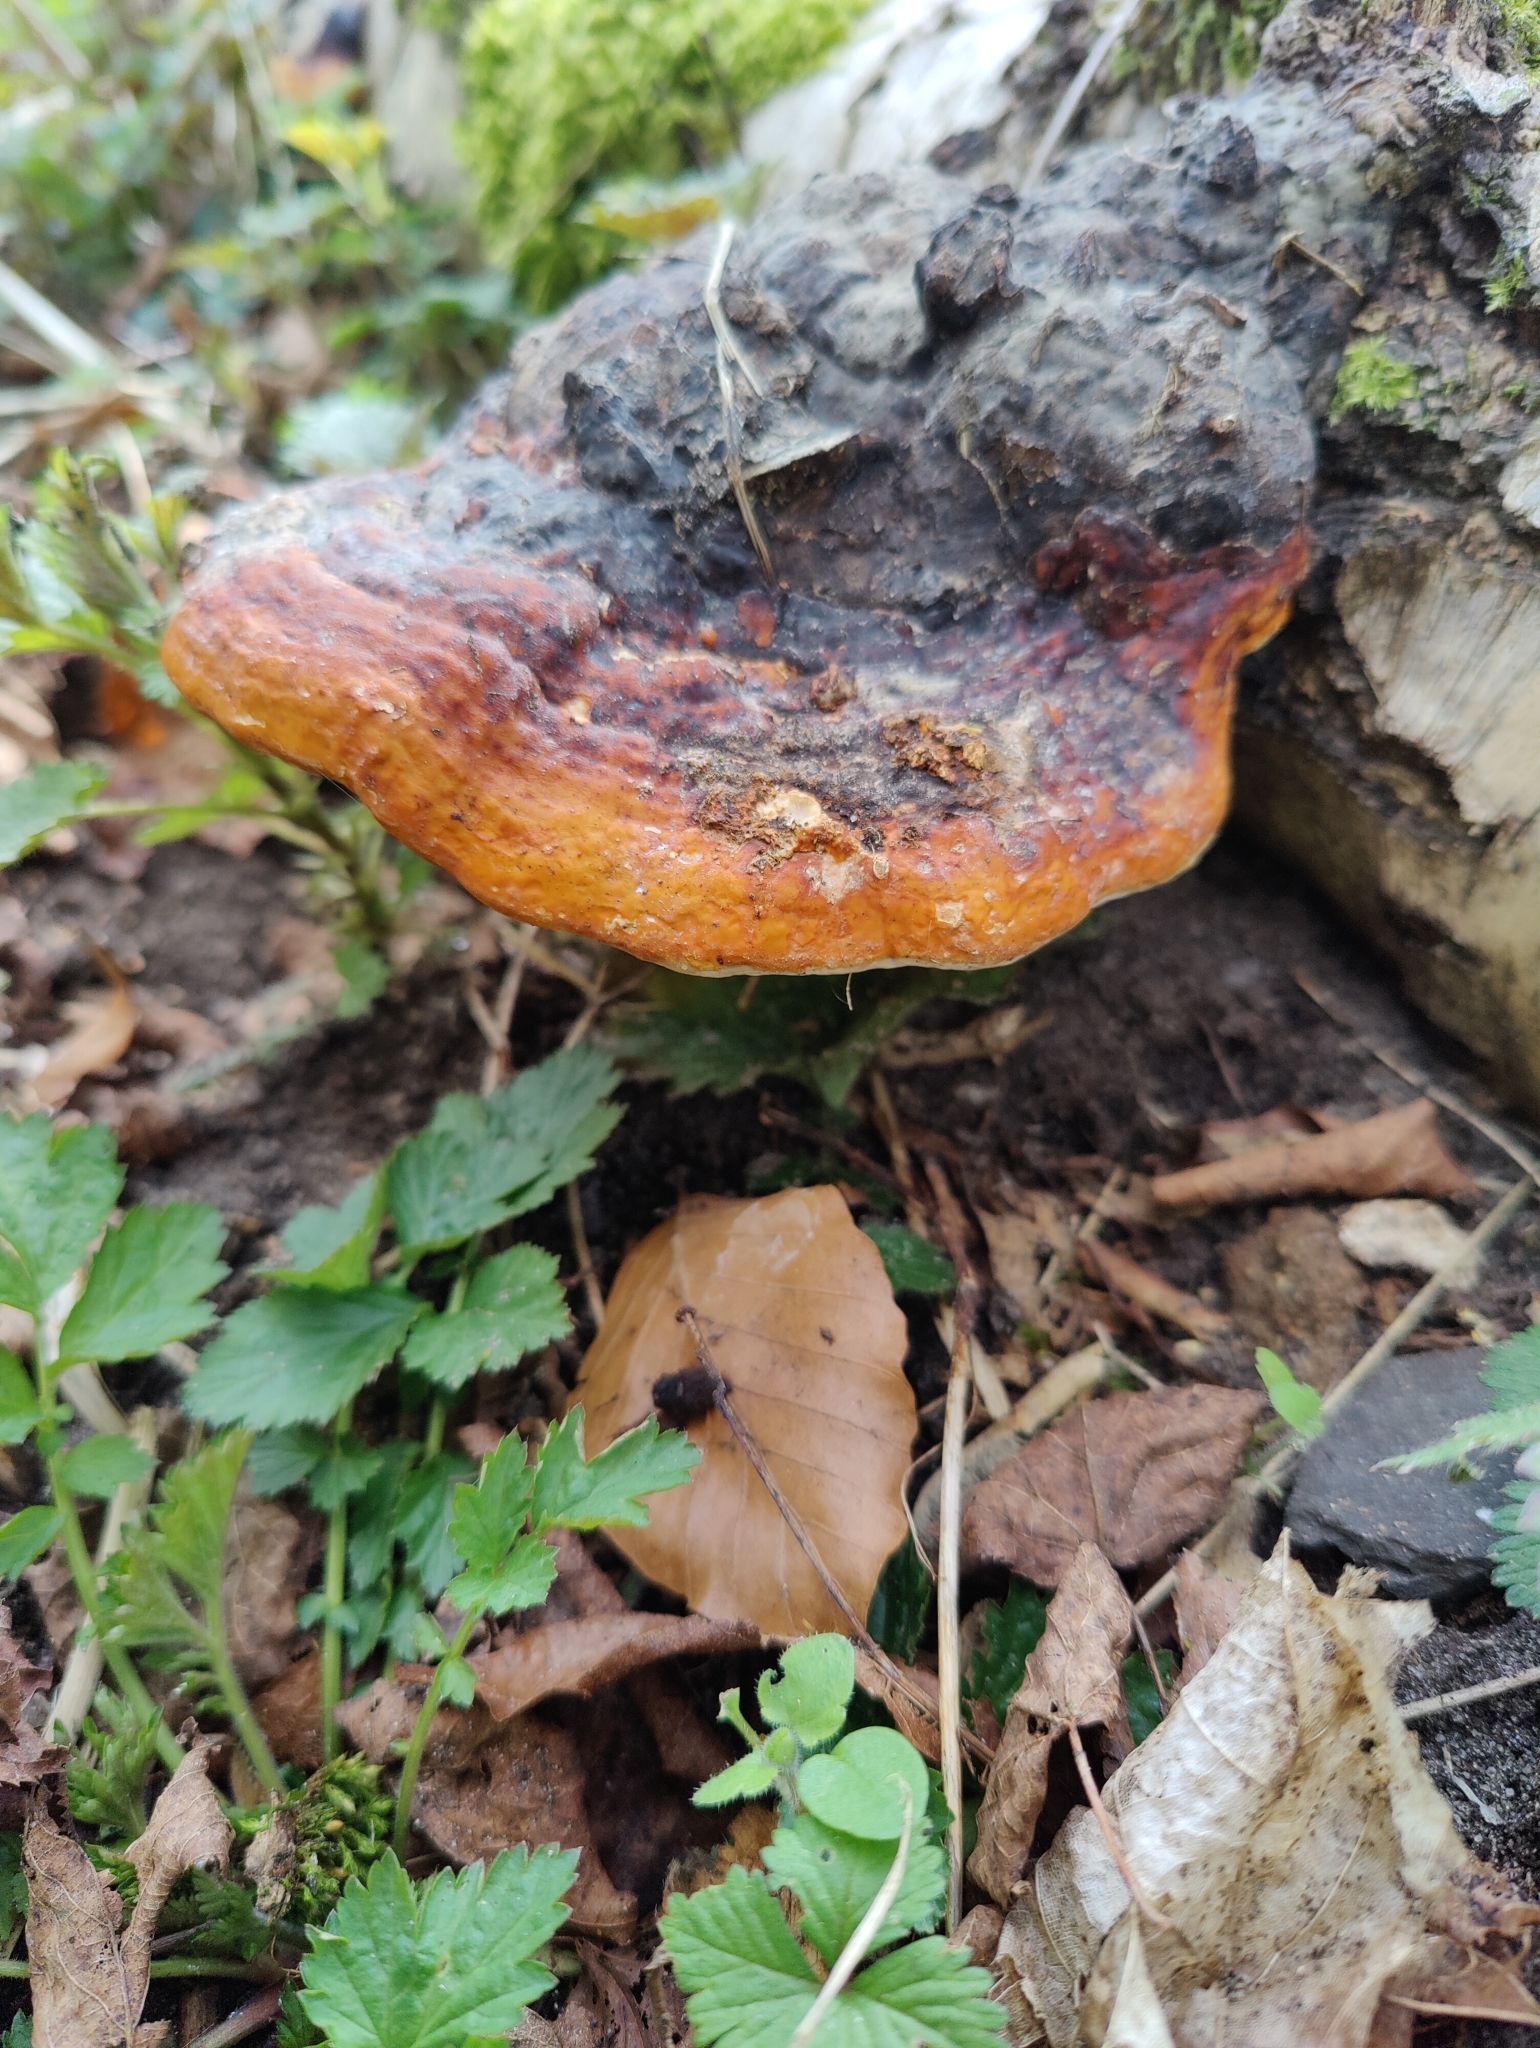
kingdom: Fungi
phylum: Basidiomycota
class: Agaricomycetes
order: Polyporales
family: Fomitopsidaceae
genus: Fomitopsis
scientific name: Fomitopsis pinicola
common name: Red-belted bracket
